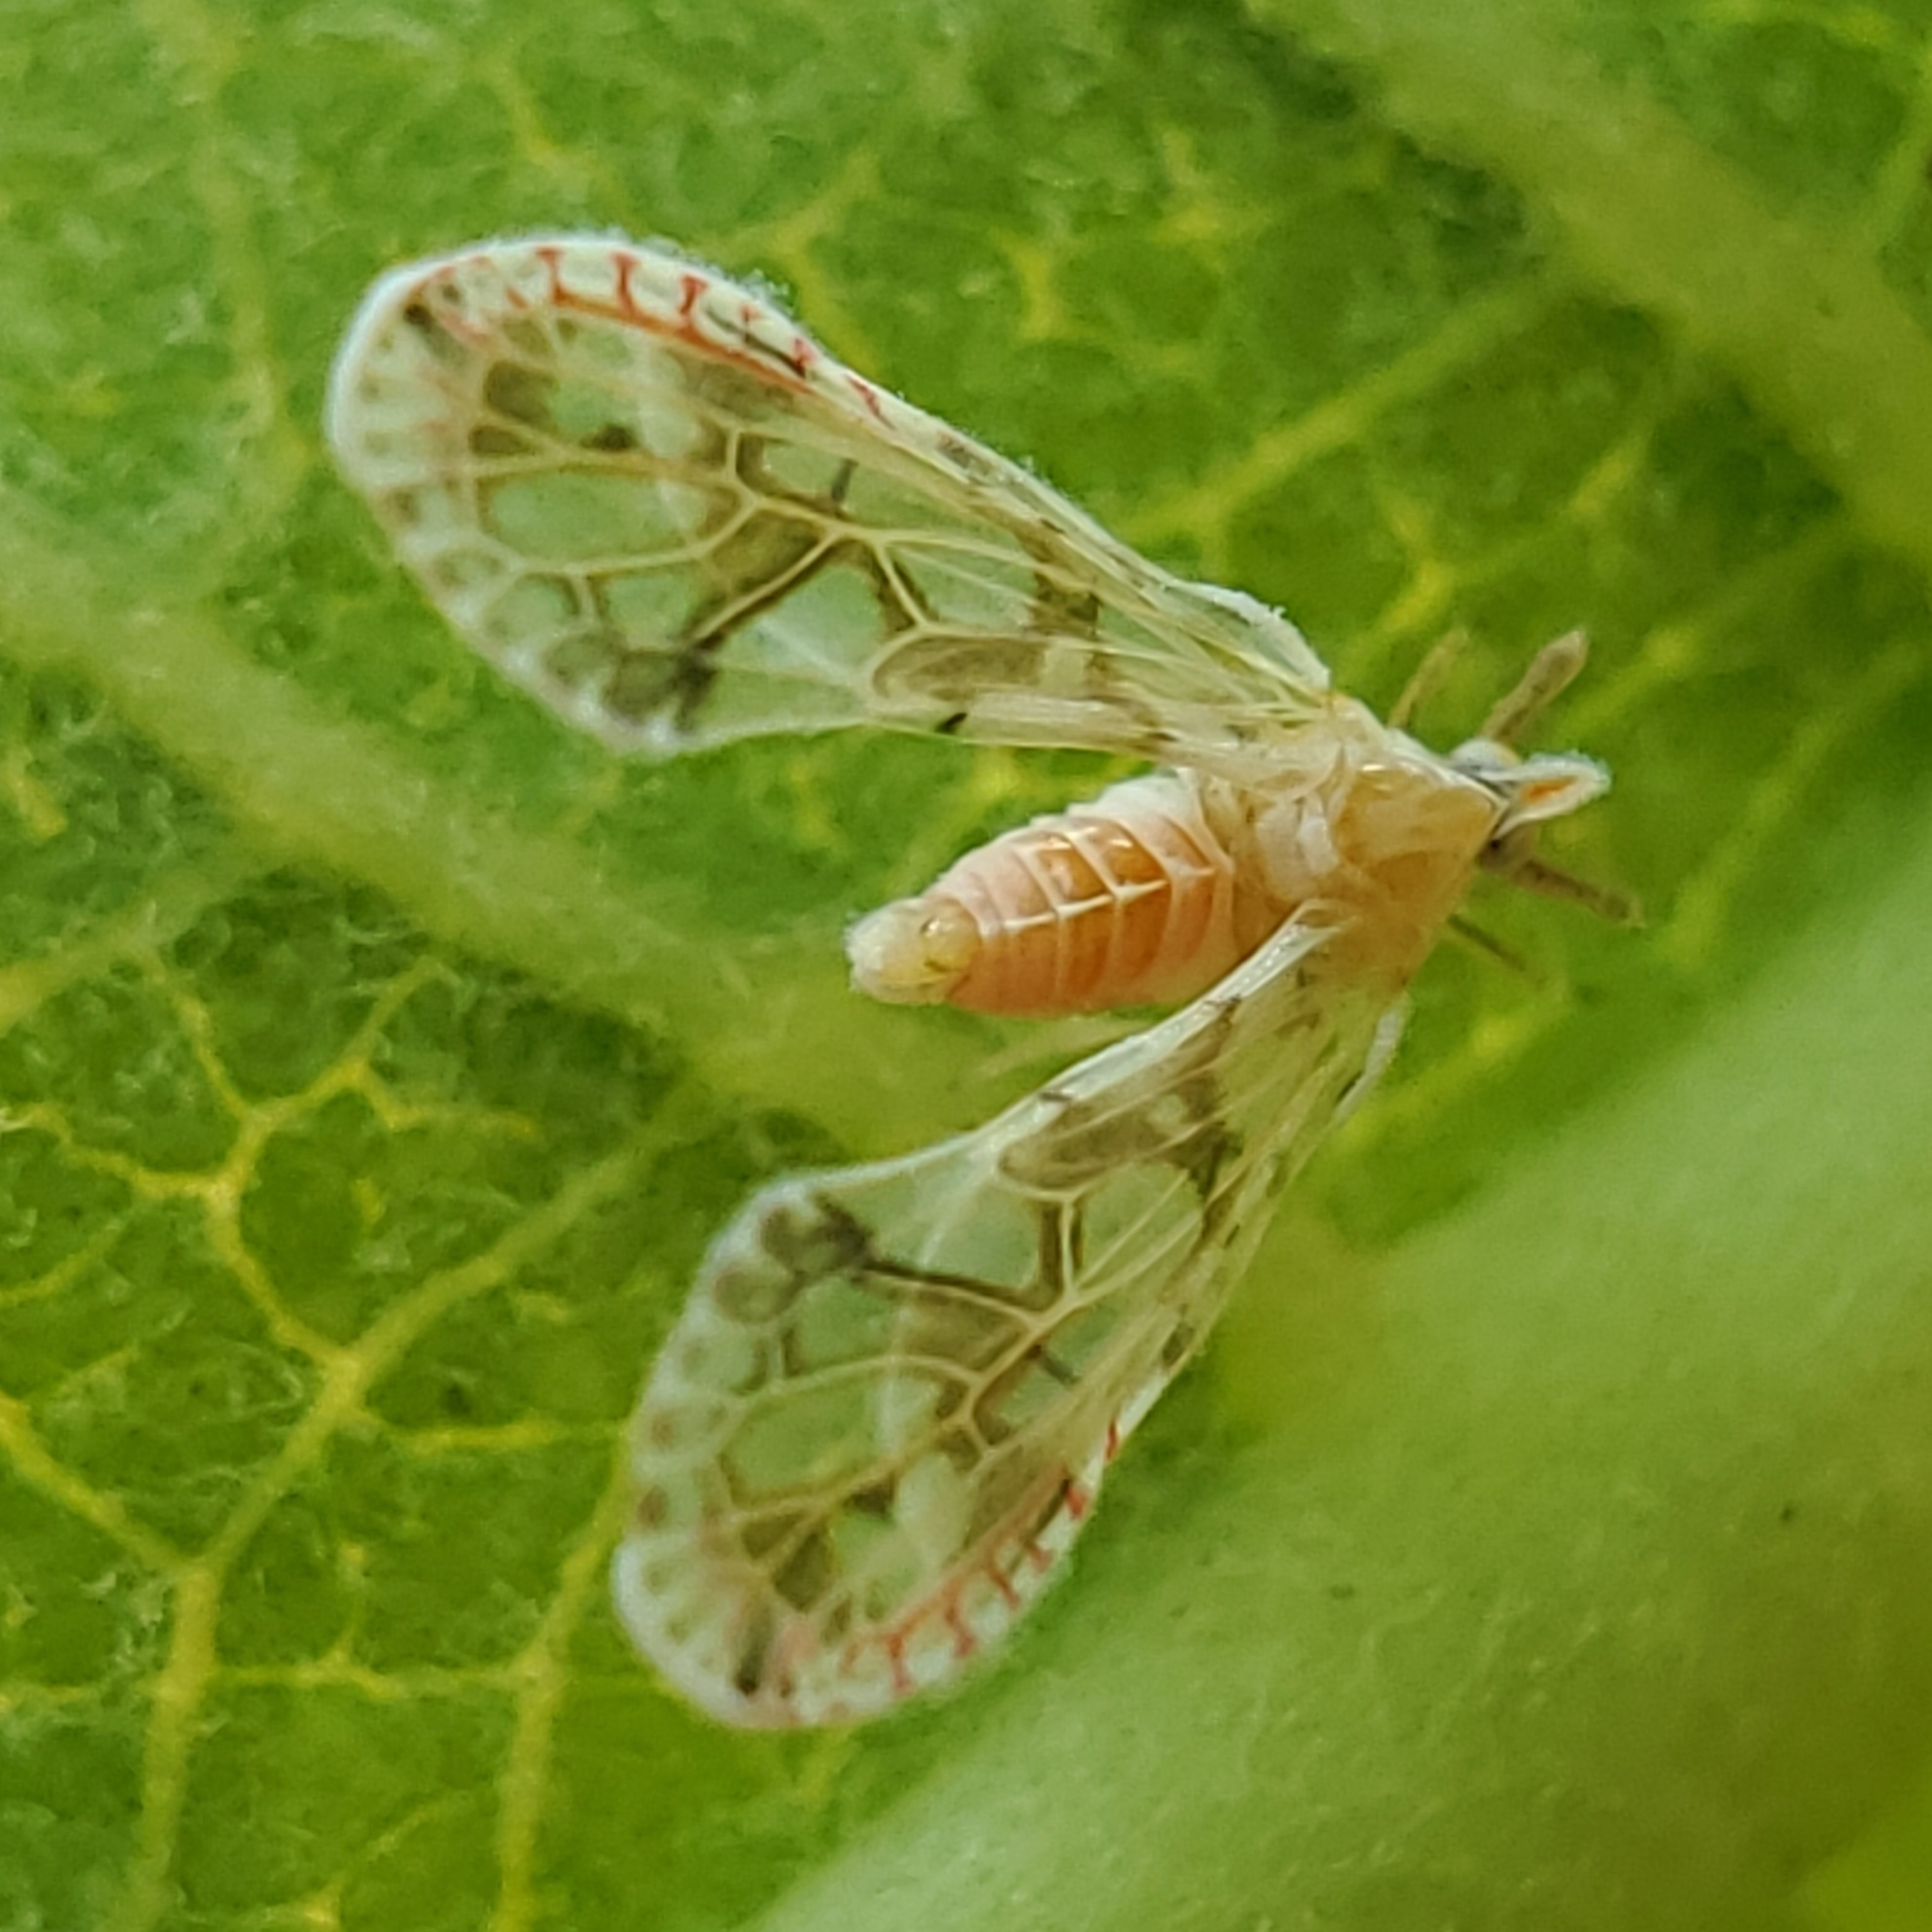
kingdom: Animalia
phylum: Arthropoda
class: Insecta
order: Hemiptera
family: Derbidae
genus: Anotia
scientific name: Anotia kirkaldyi
